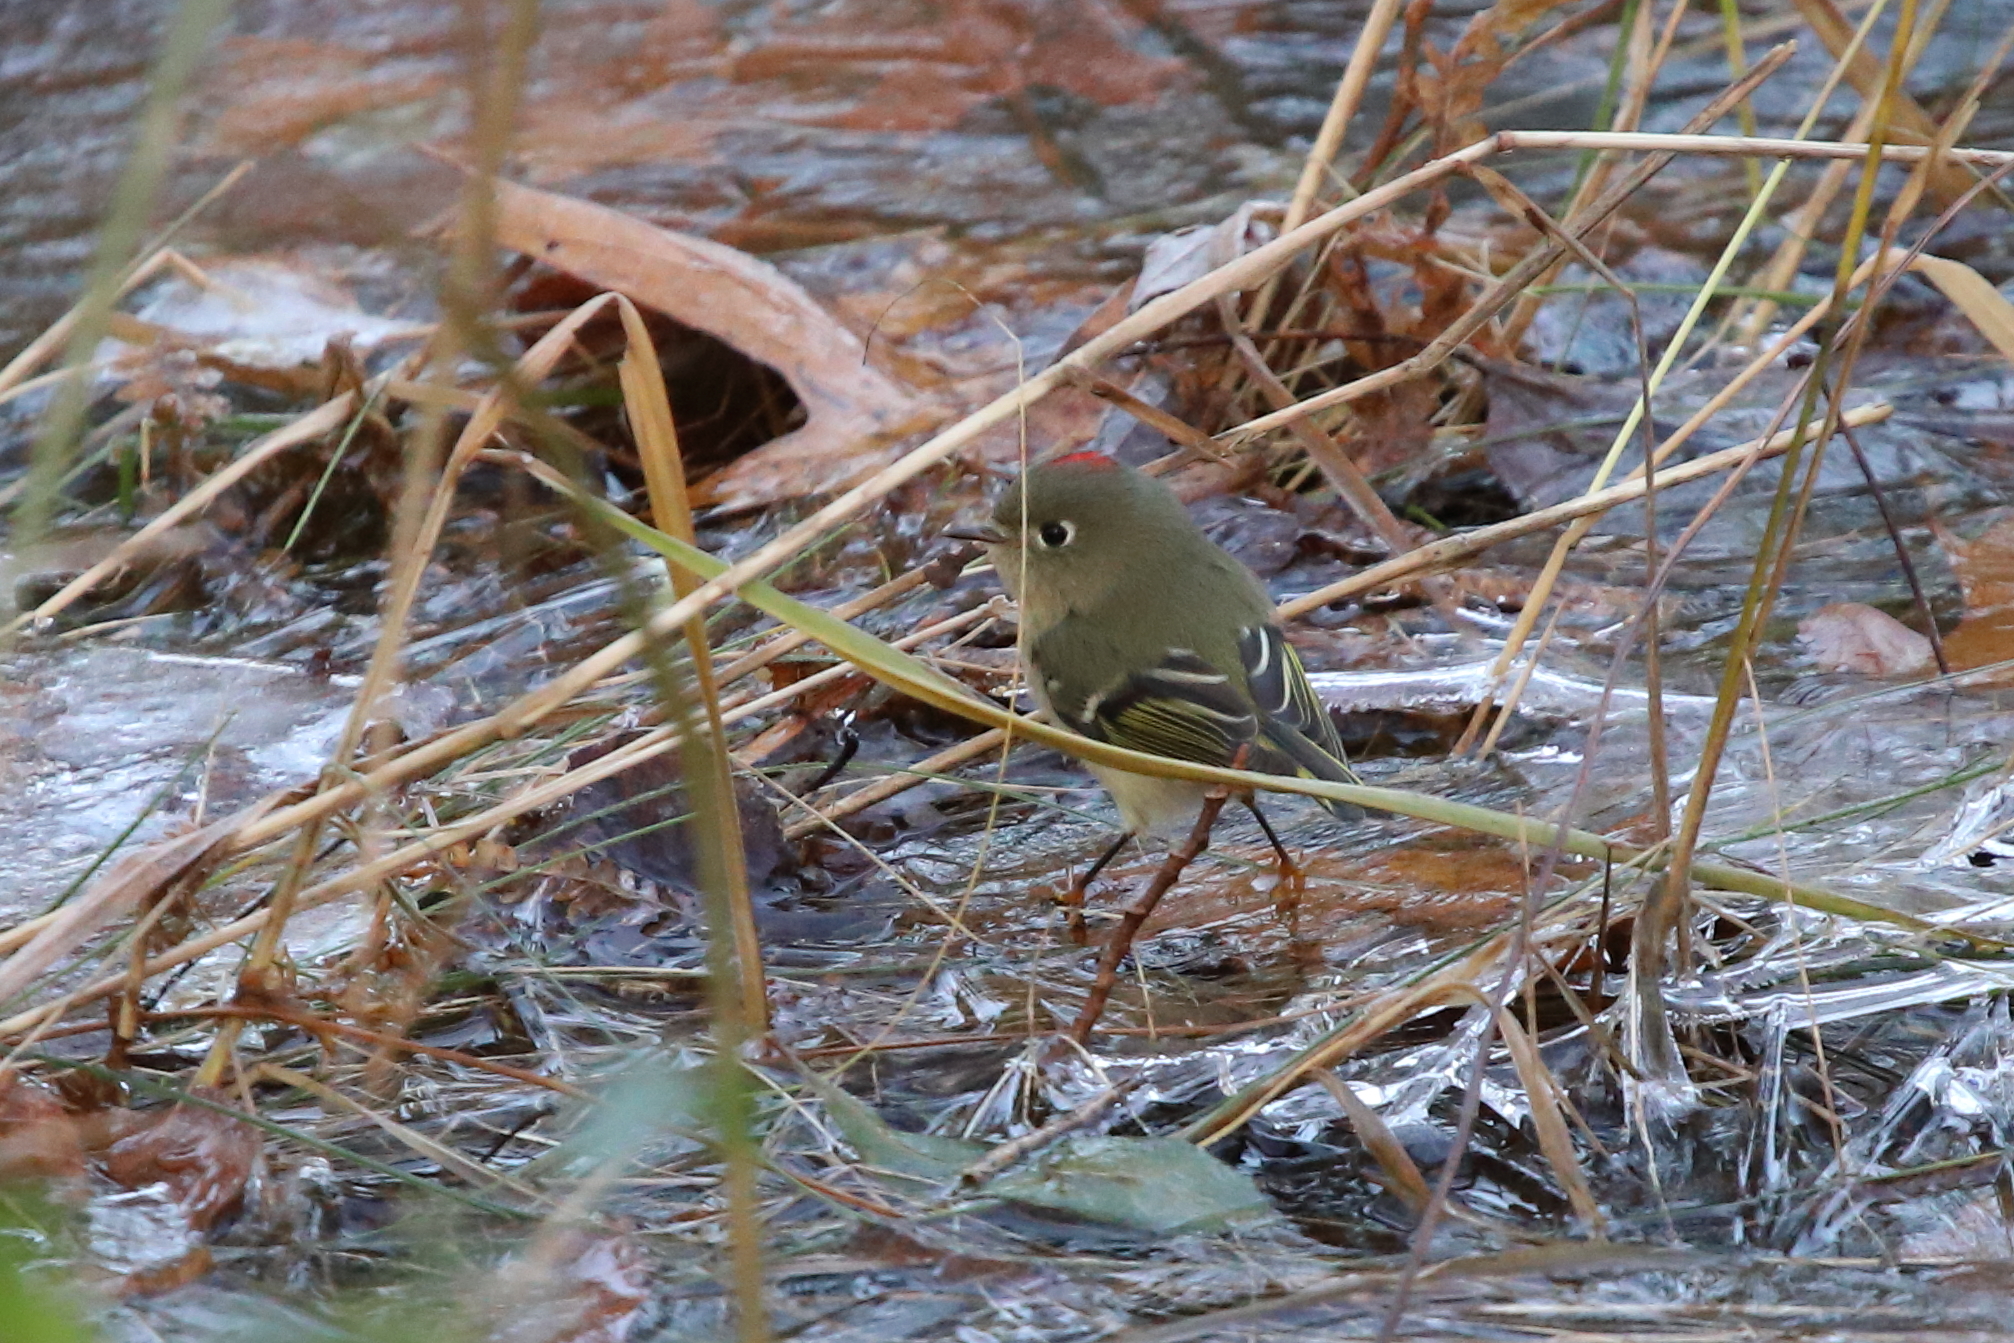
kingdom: Animalia
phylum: Chordata
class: Aves
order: Passeriformes
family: Regulidae
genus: Regulus
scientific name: Regulus calendula
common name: Ruby-crowned kinglet
